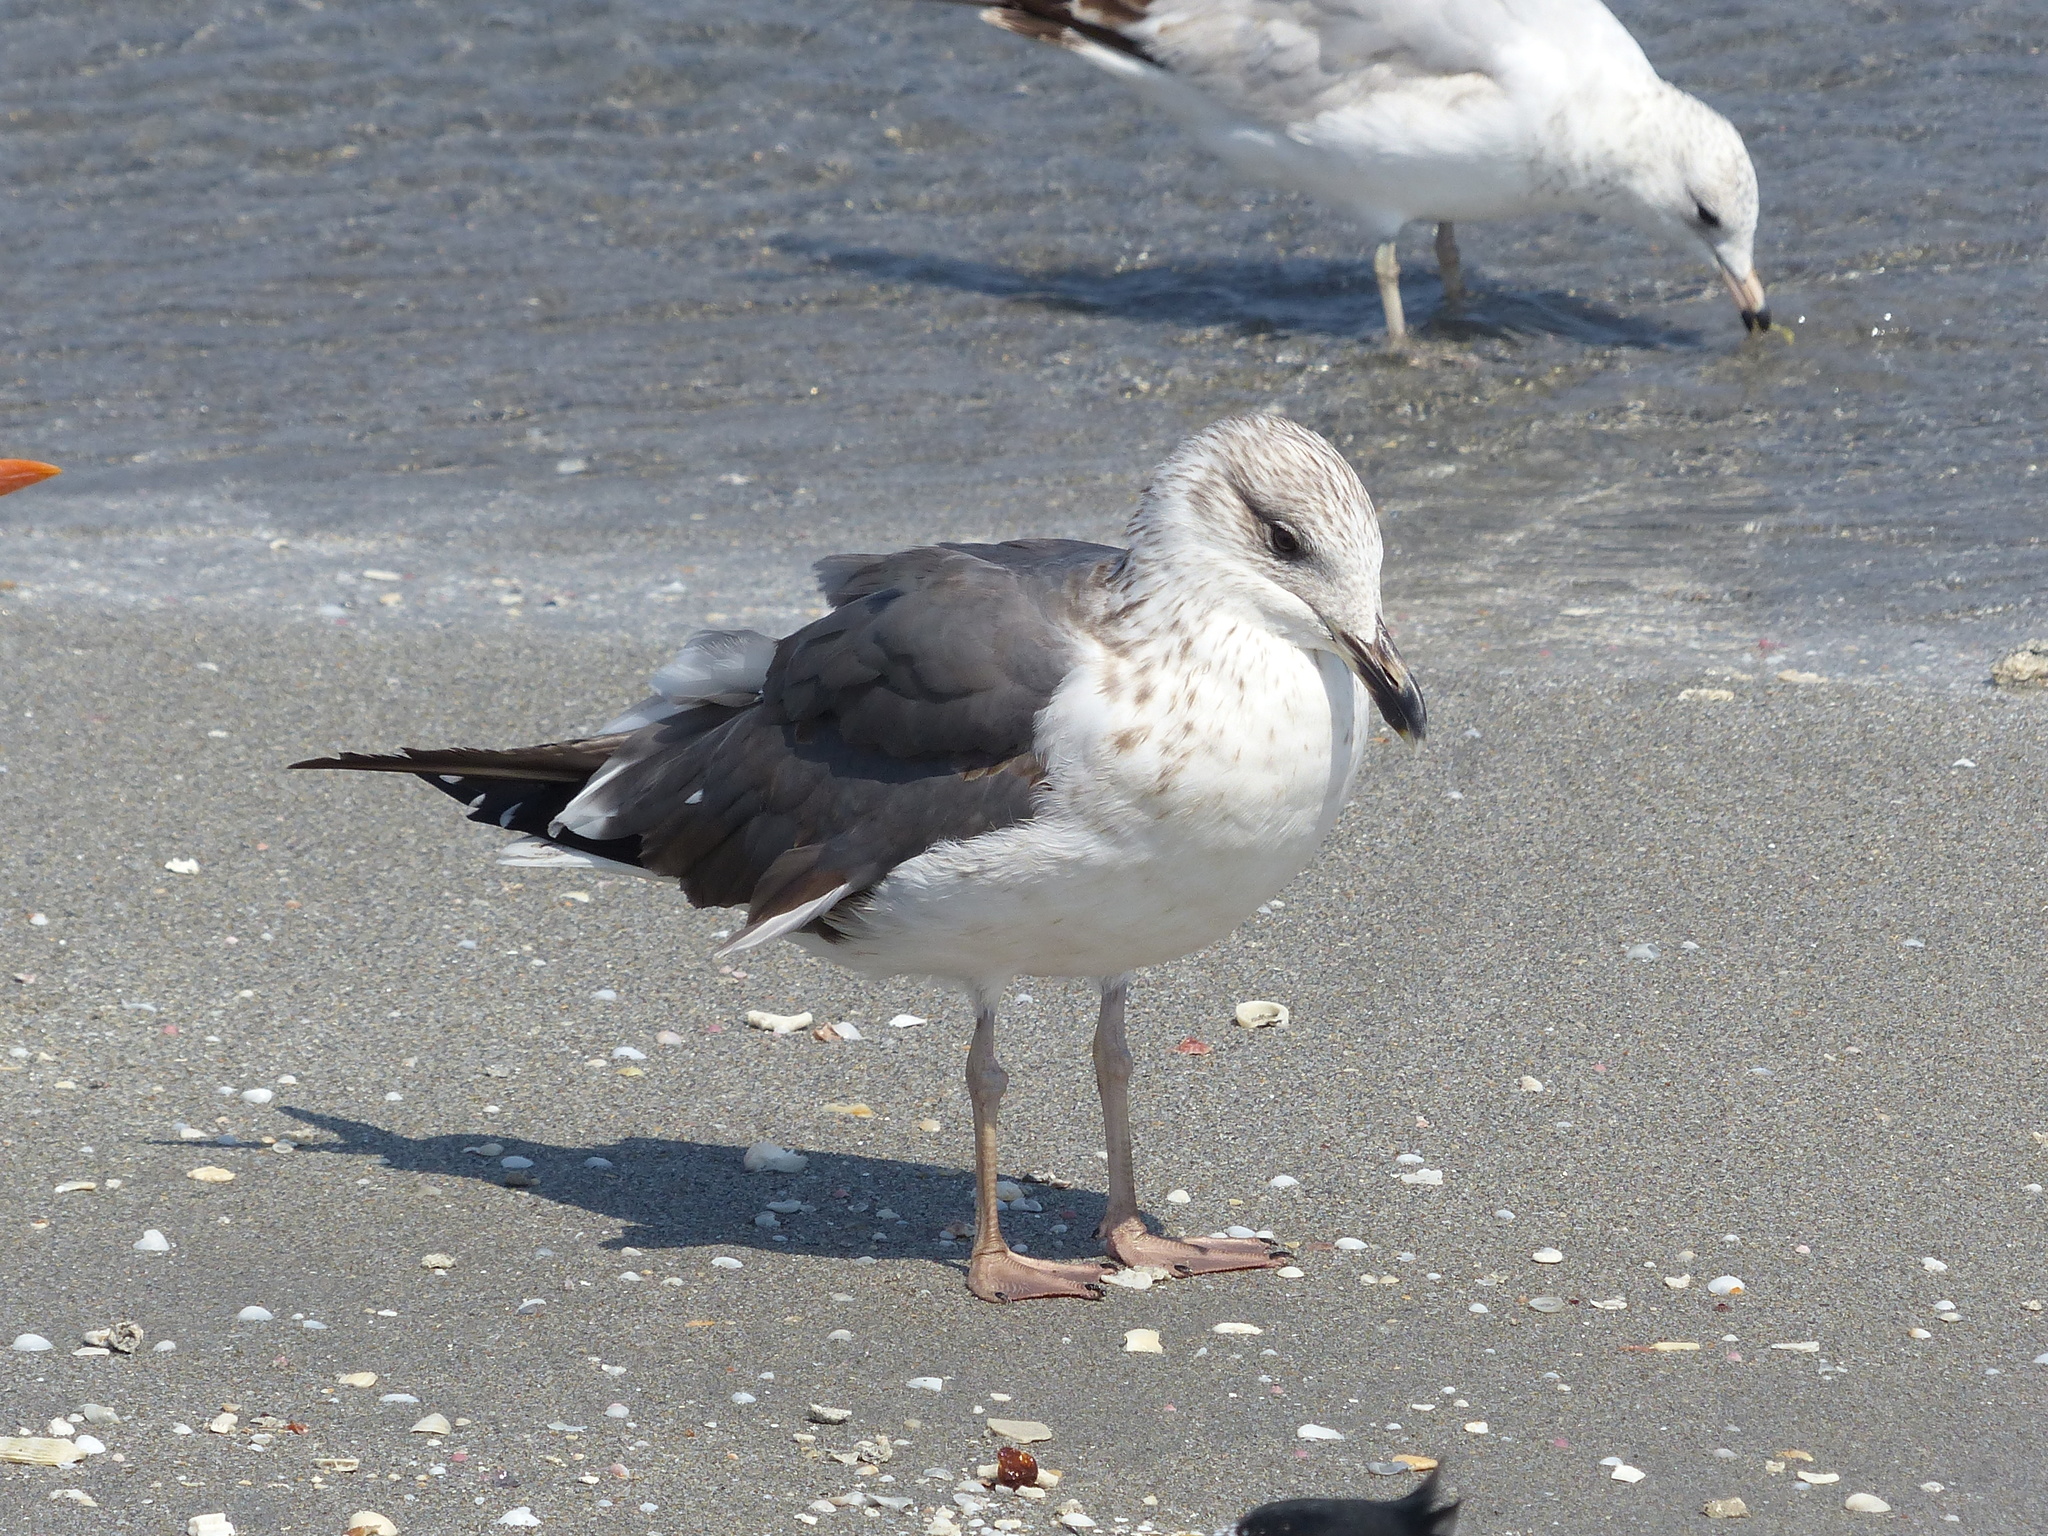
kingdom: Animalia
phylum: Chordata
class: Aves
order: Charadriiformes
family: Laridae
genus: Larus
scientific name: Larus fuscus
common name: Lesser black-backed gull
